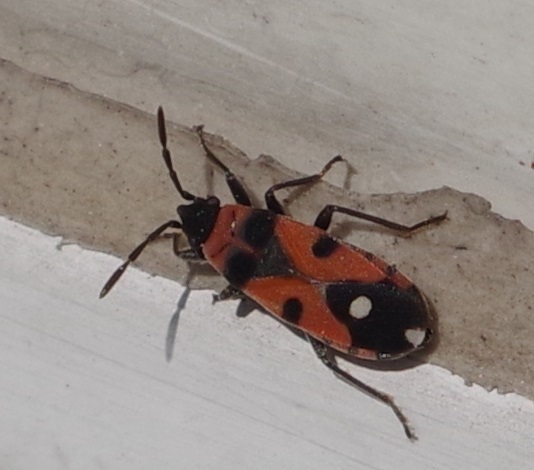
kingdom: Animalia
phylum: Arthropoda
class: Insecta
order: Hemiptera
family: Lygaeidae
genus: Horvathiolus
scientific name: Horvathiolus superbus
